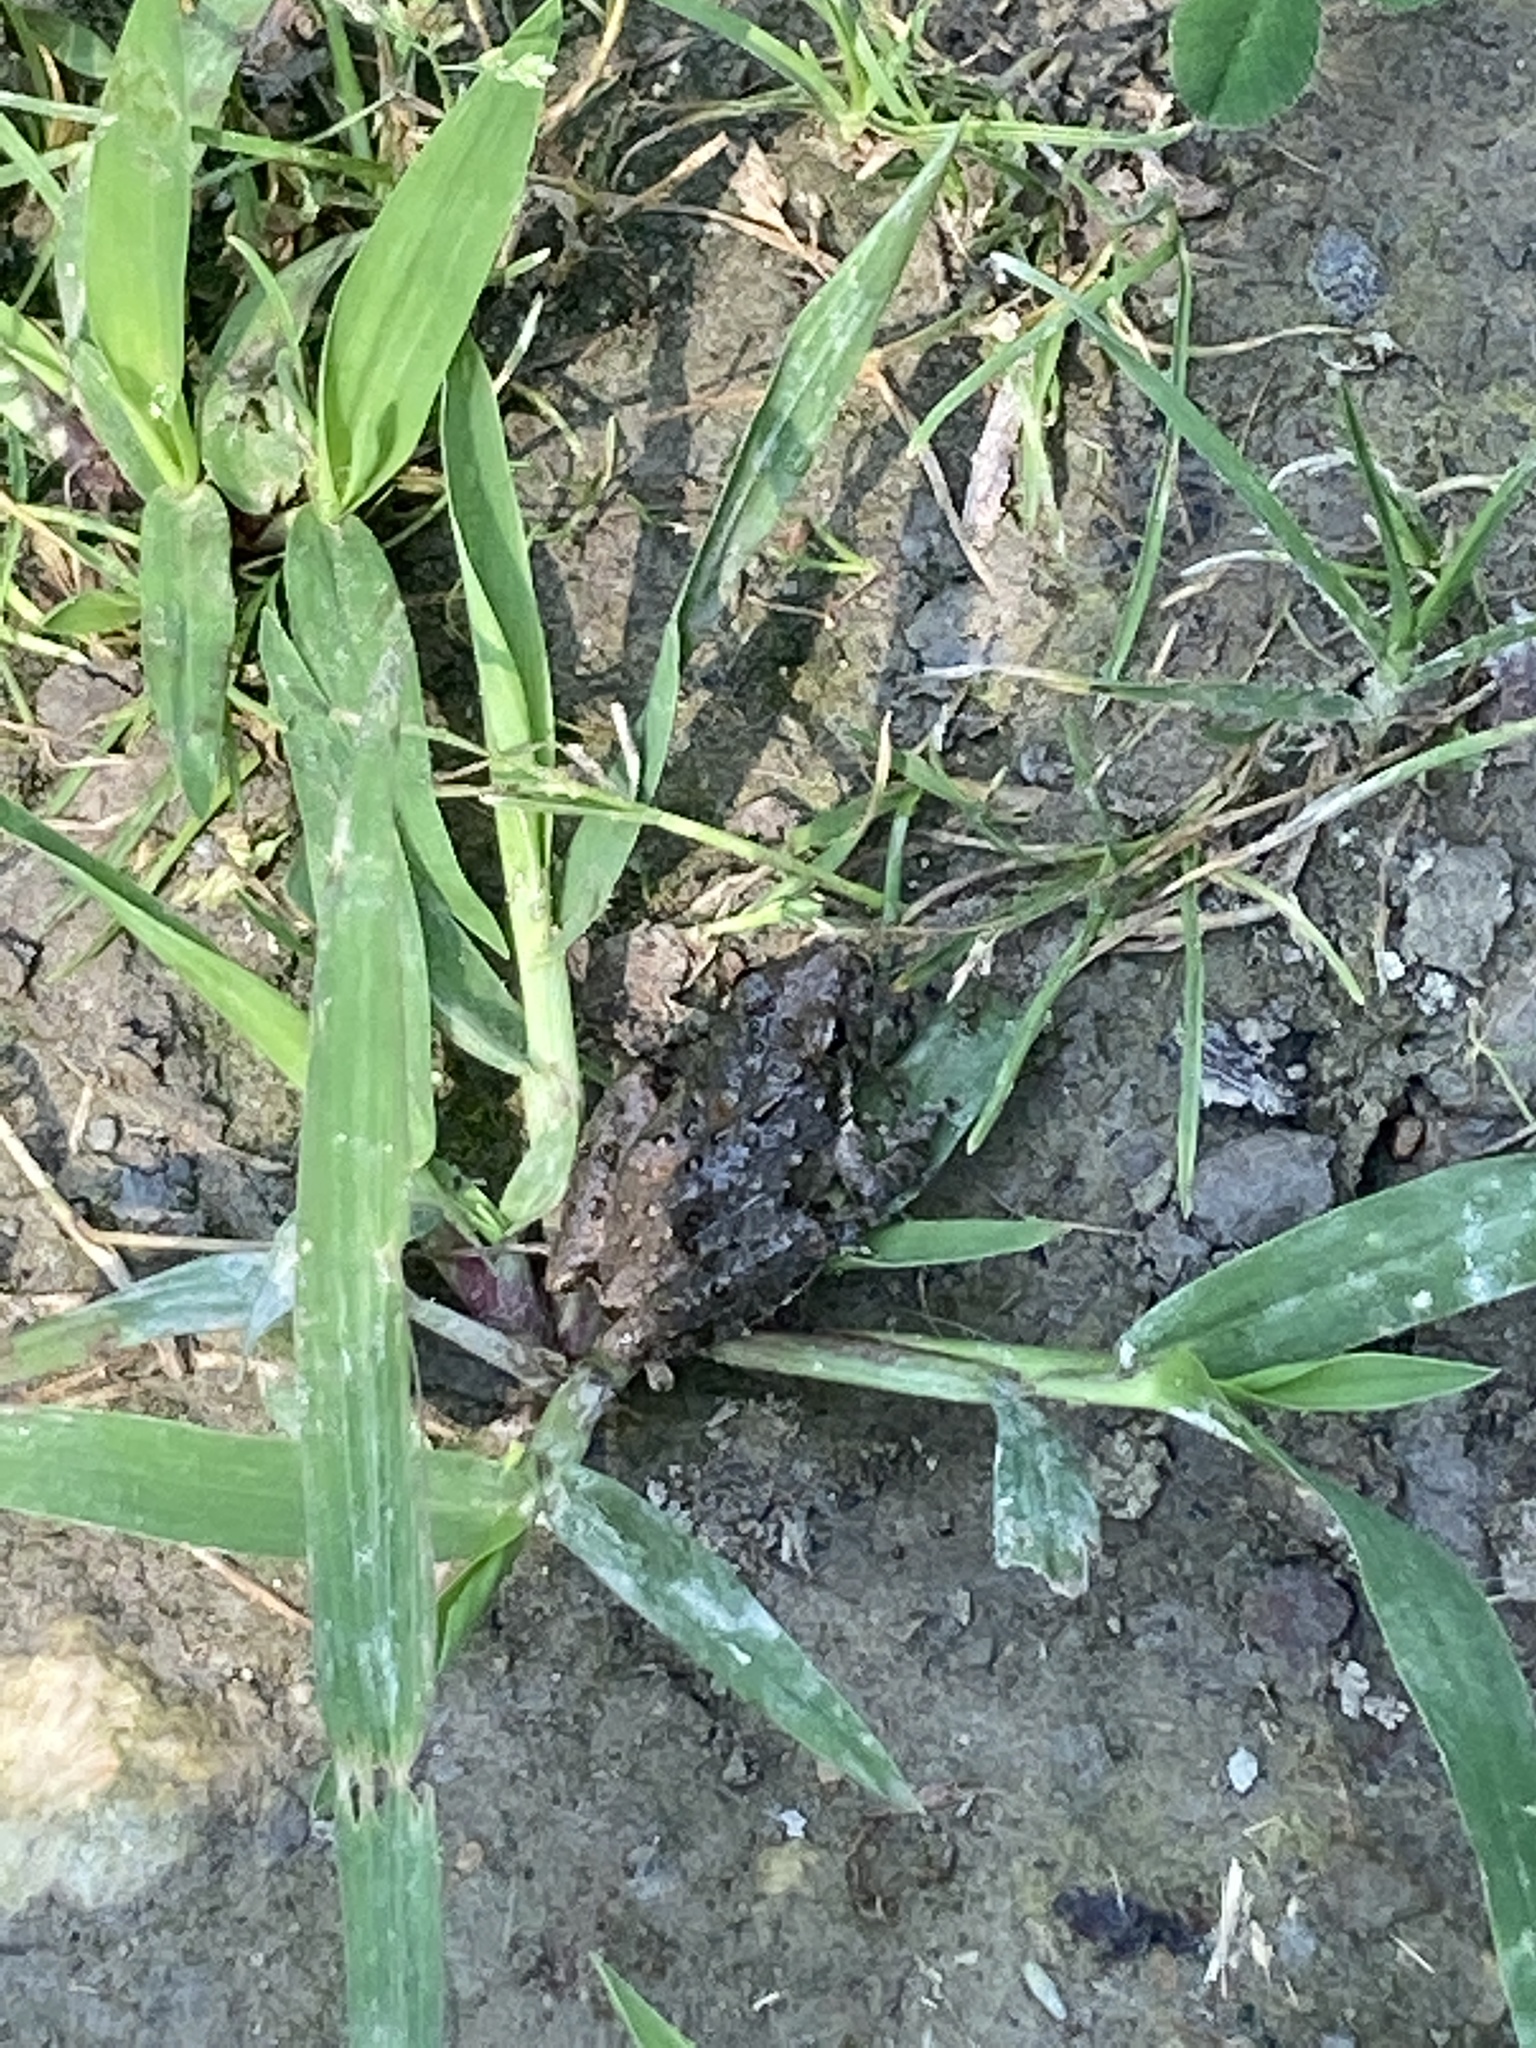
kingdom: Animalia
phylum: Chordata
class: Amphibia
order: Anura
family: Hylidae
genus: Acris
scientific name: Acris blanchardi
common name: Blanchard's cricket frog
